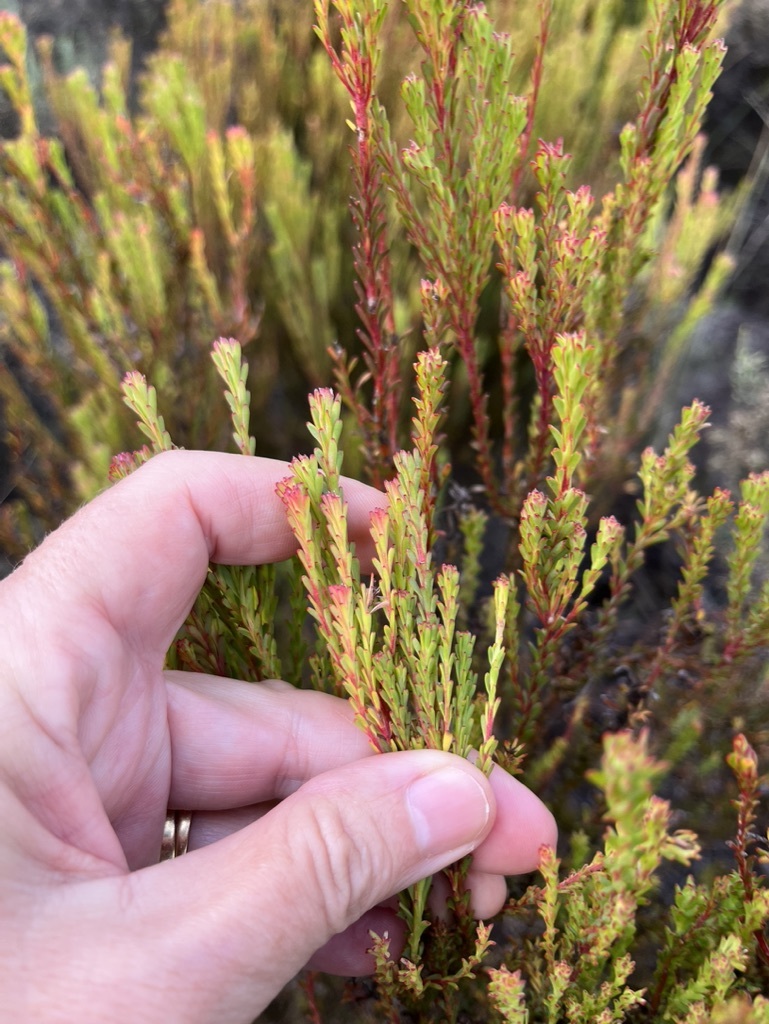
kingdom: Plantae
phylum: Tracheophyta
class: Magnoliopsida
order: Proteales
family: Proteaceae
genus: Leucadendron
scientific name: Leucadendron linifolium
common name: Line-leaf conebush
